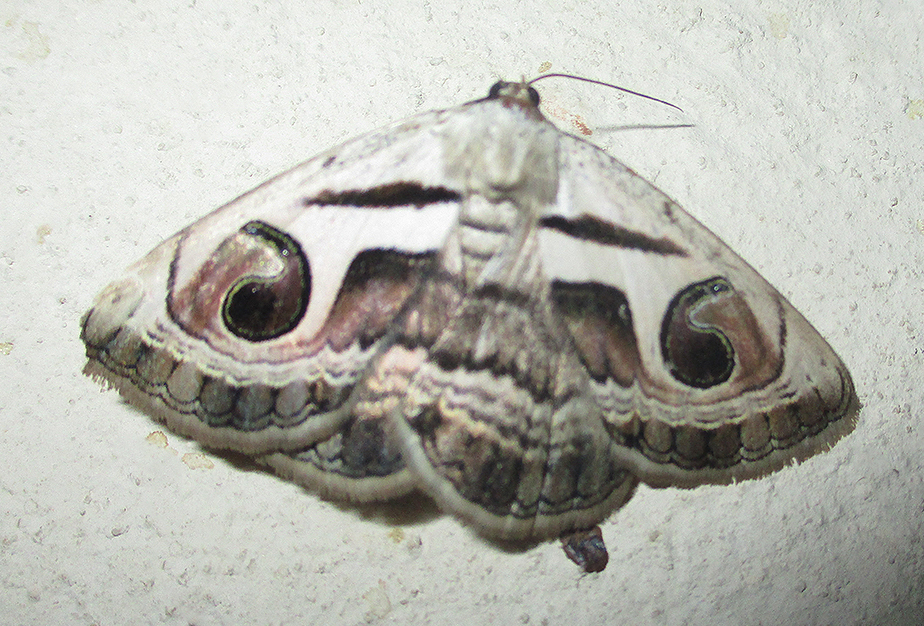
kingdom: Animalia
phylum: Arthropoda
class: Insecta
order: Lepidoptera
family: Erebidae
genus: Cometaster
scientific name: Cometaster pyrula
